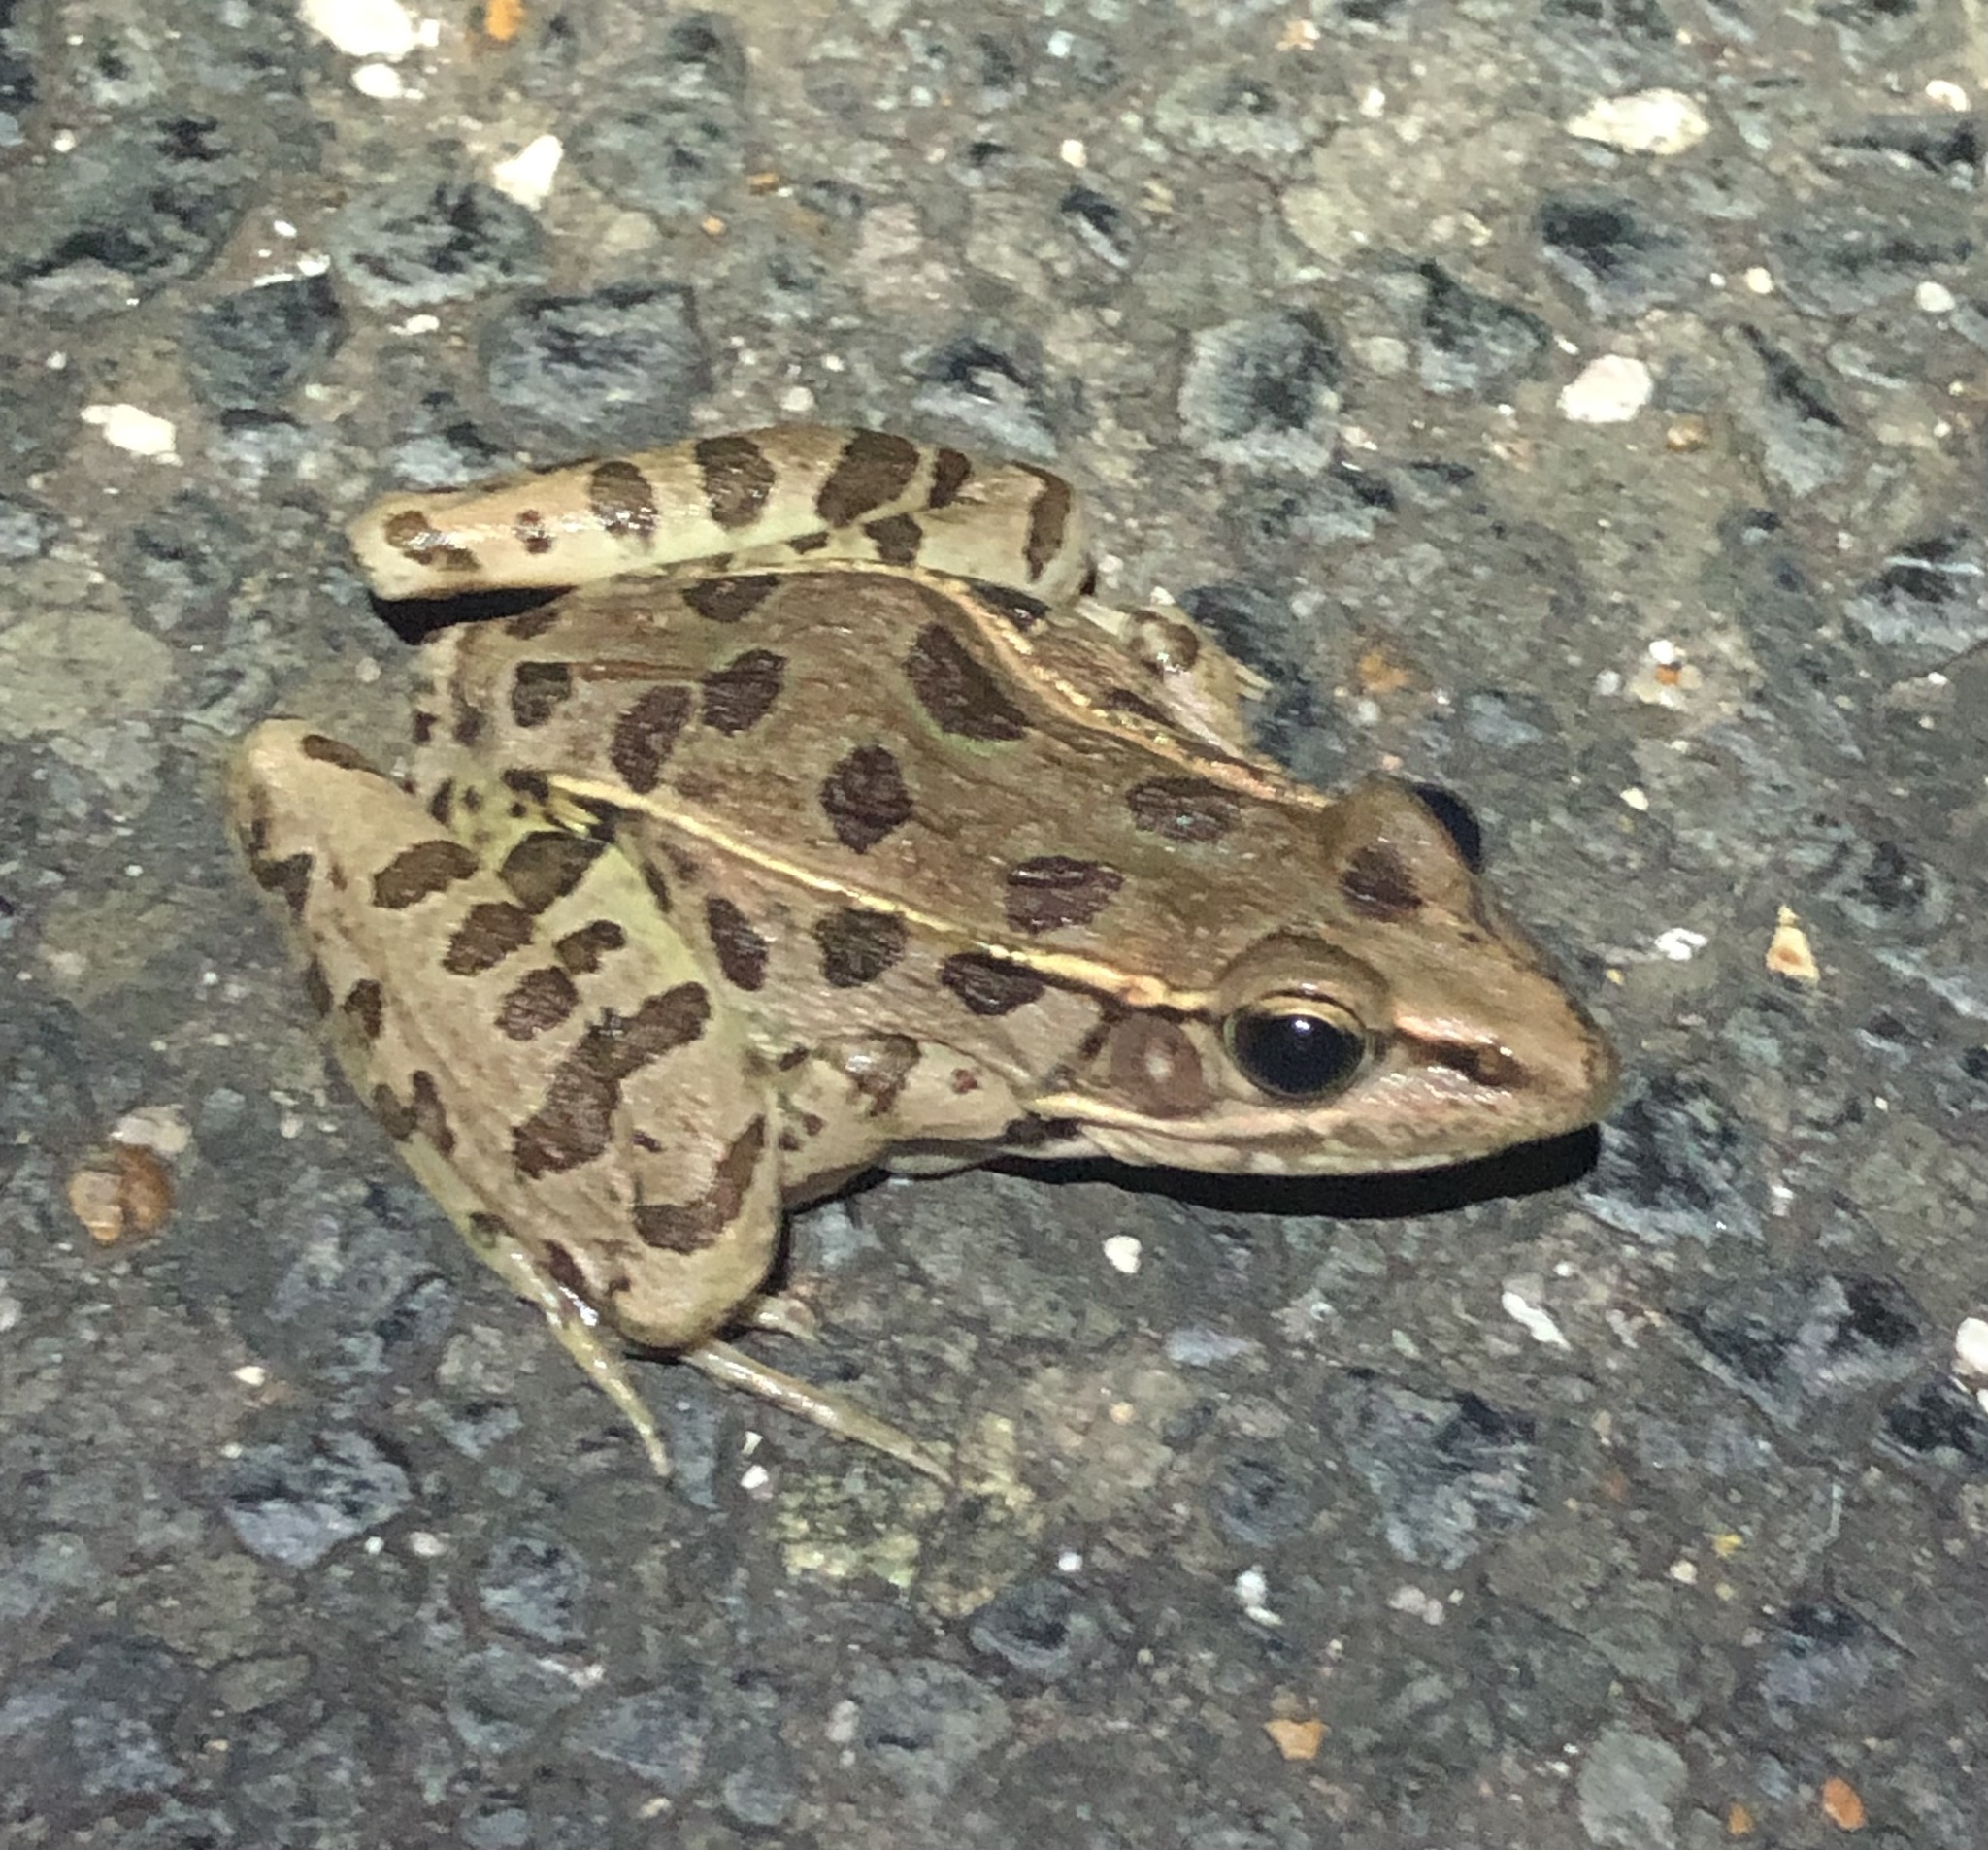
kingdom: Animalia
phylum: Chordata
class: Amphibia
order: Anura
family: Ranidae
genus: Lithobates
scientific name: Lithobates sphenocephalus
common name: Southern leopard frog
